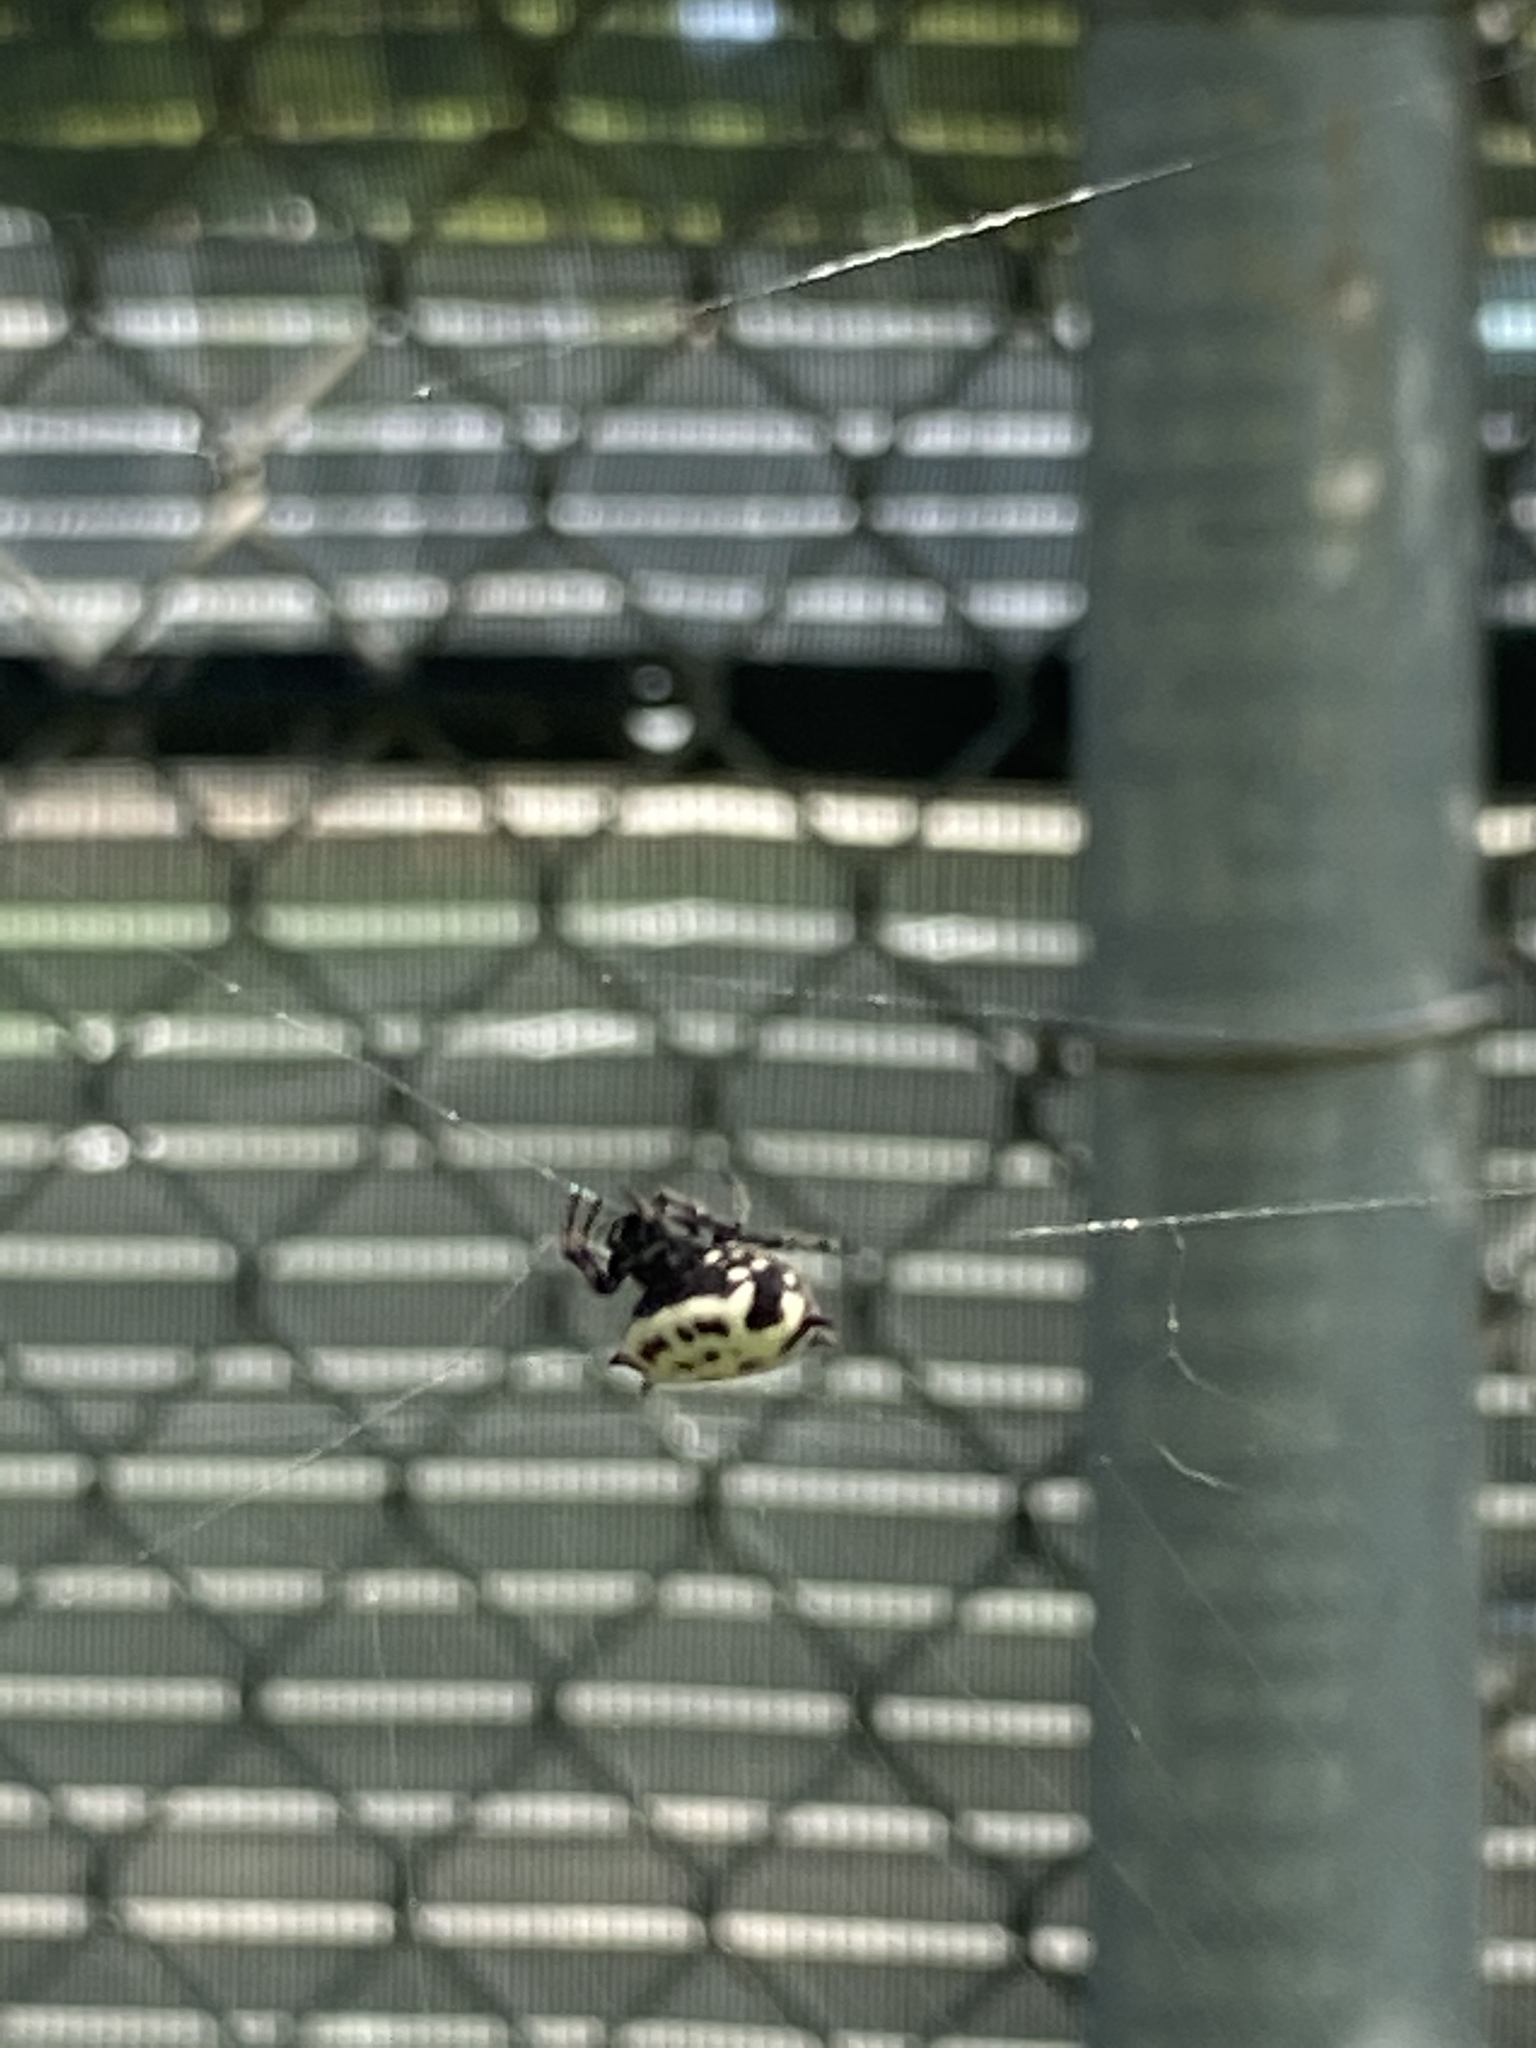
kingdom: Animalia
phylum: Arthropoda
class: Arachnida
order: Araneae
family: Araneidae
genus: Gasteracantha
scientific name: Gasteracantha cancriformis
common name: Orb weavers
